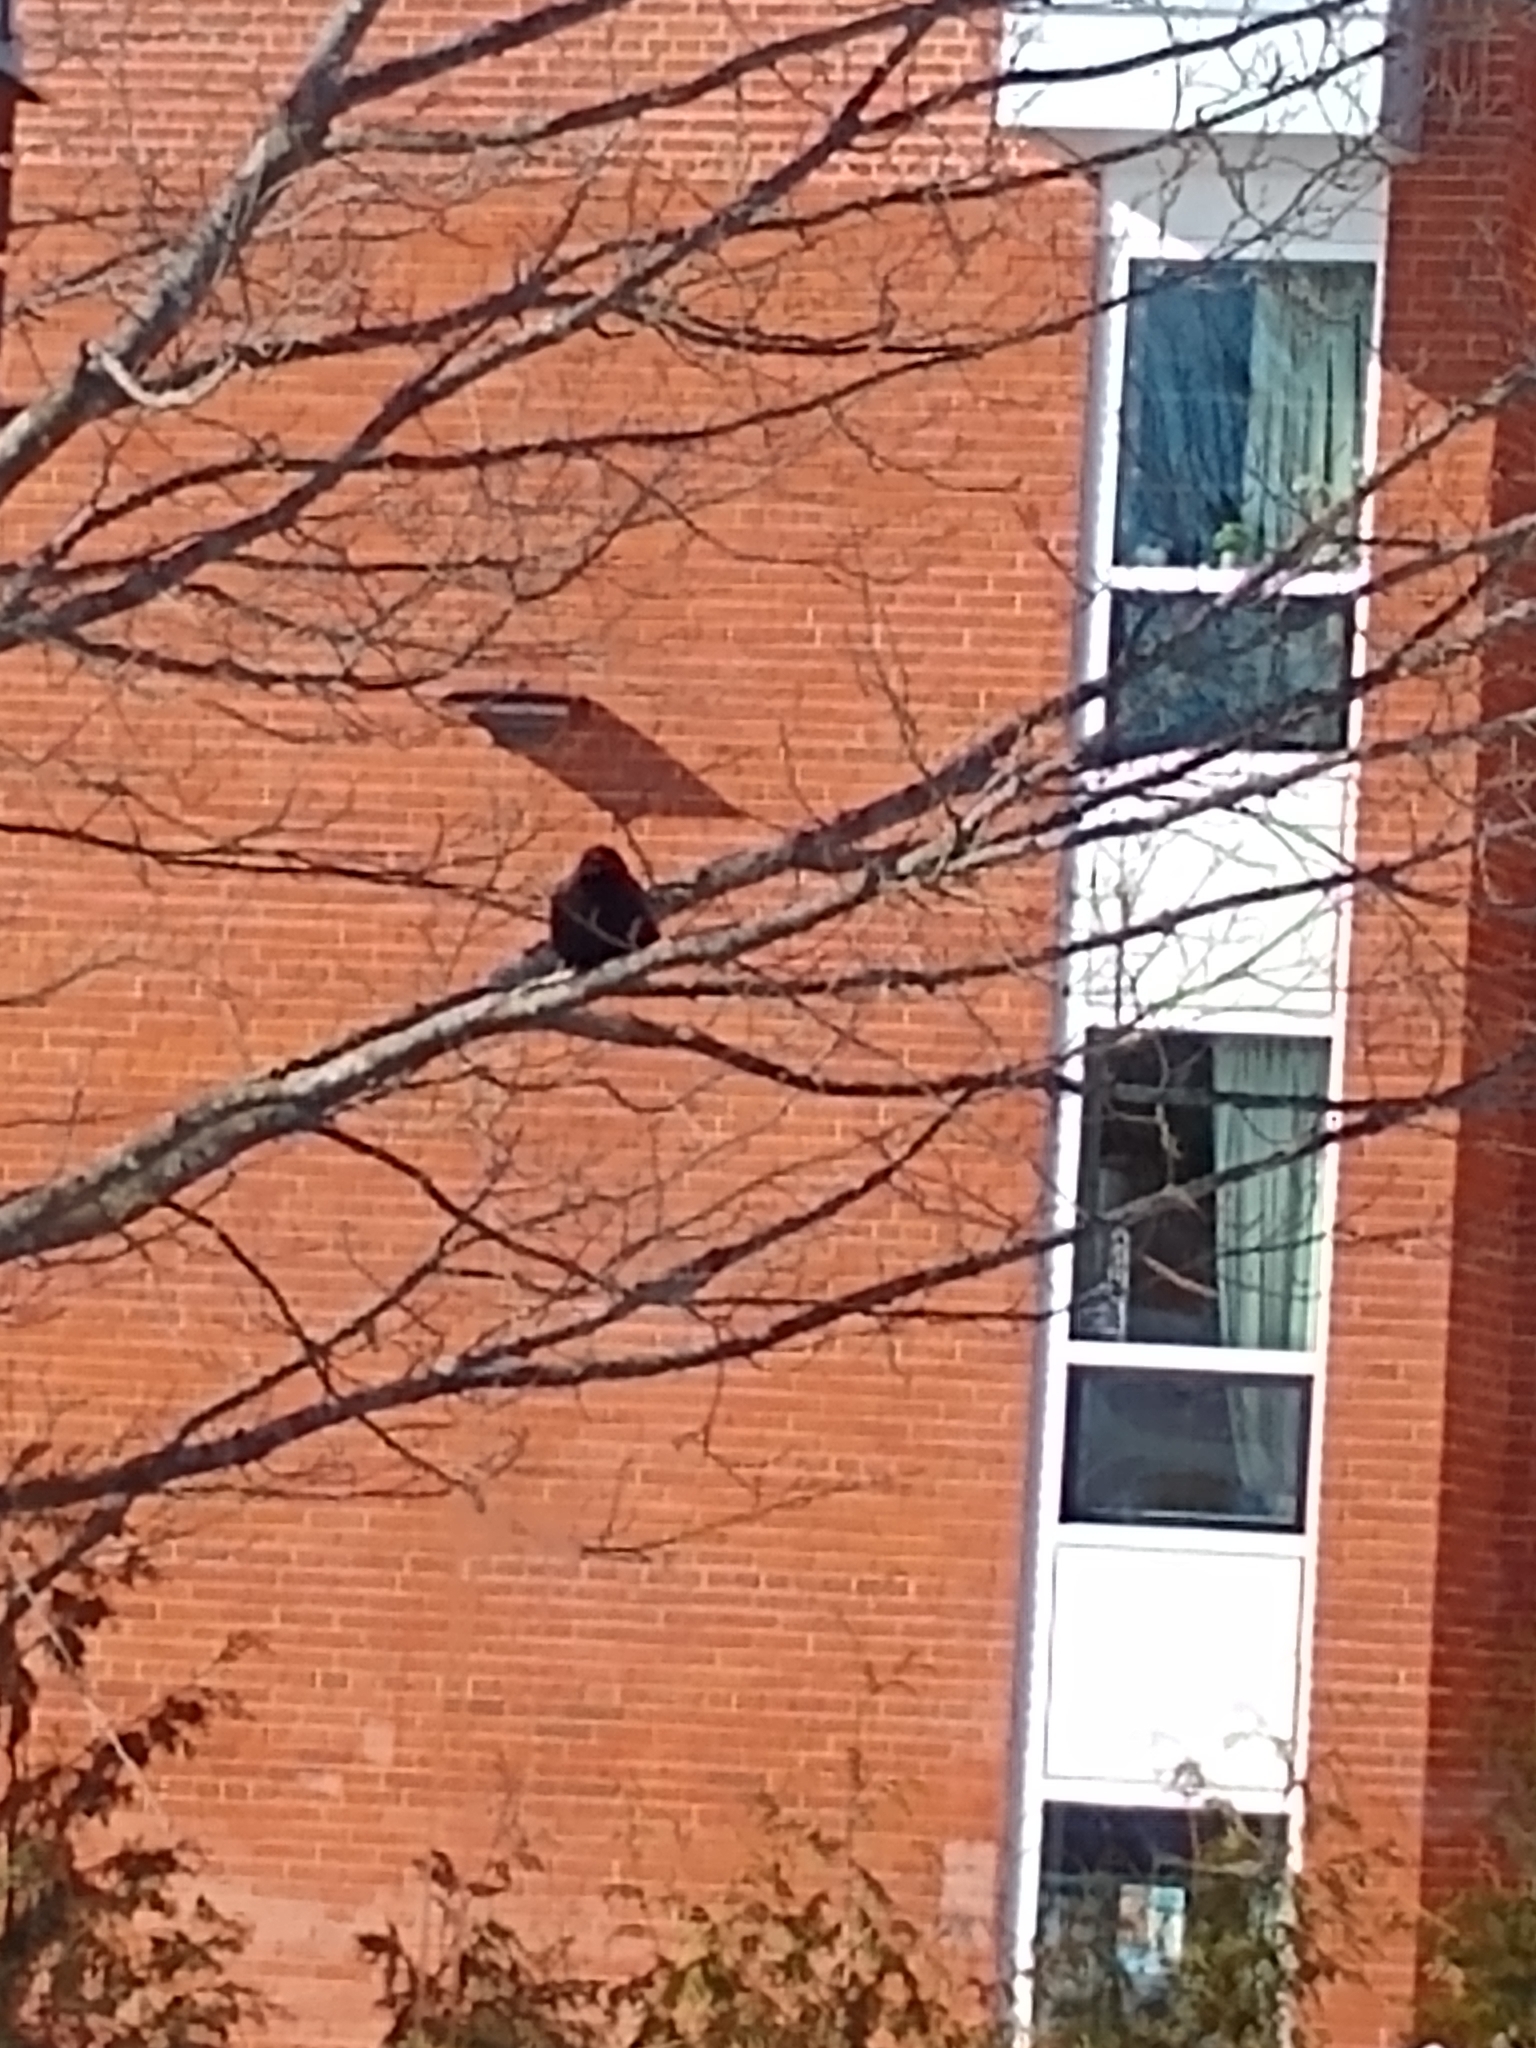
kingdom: Animalia
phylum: Chordata
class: Aves
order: Passeriformes
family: Corvidae
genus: Corvus
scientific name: Corvus brachyrhynchos
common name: American crow
